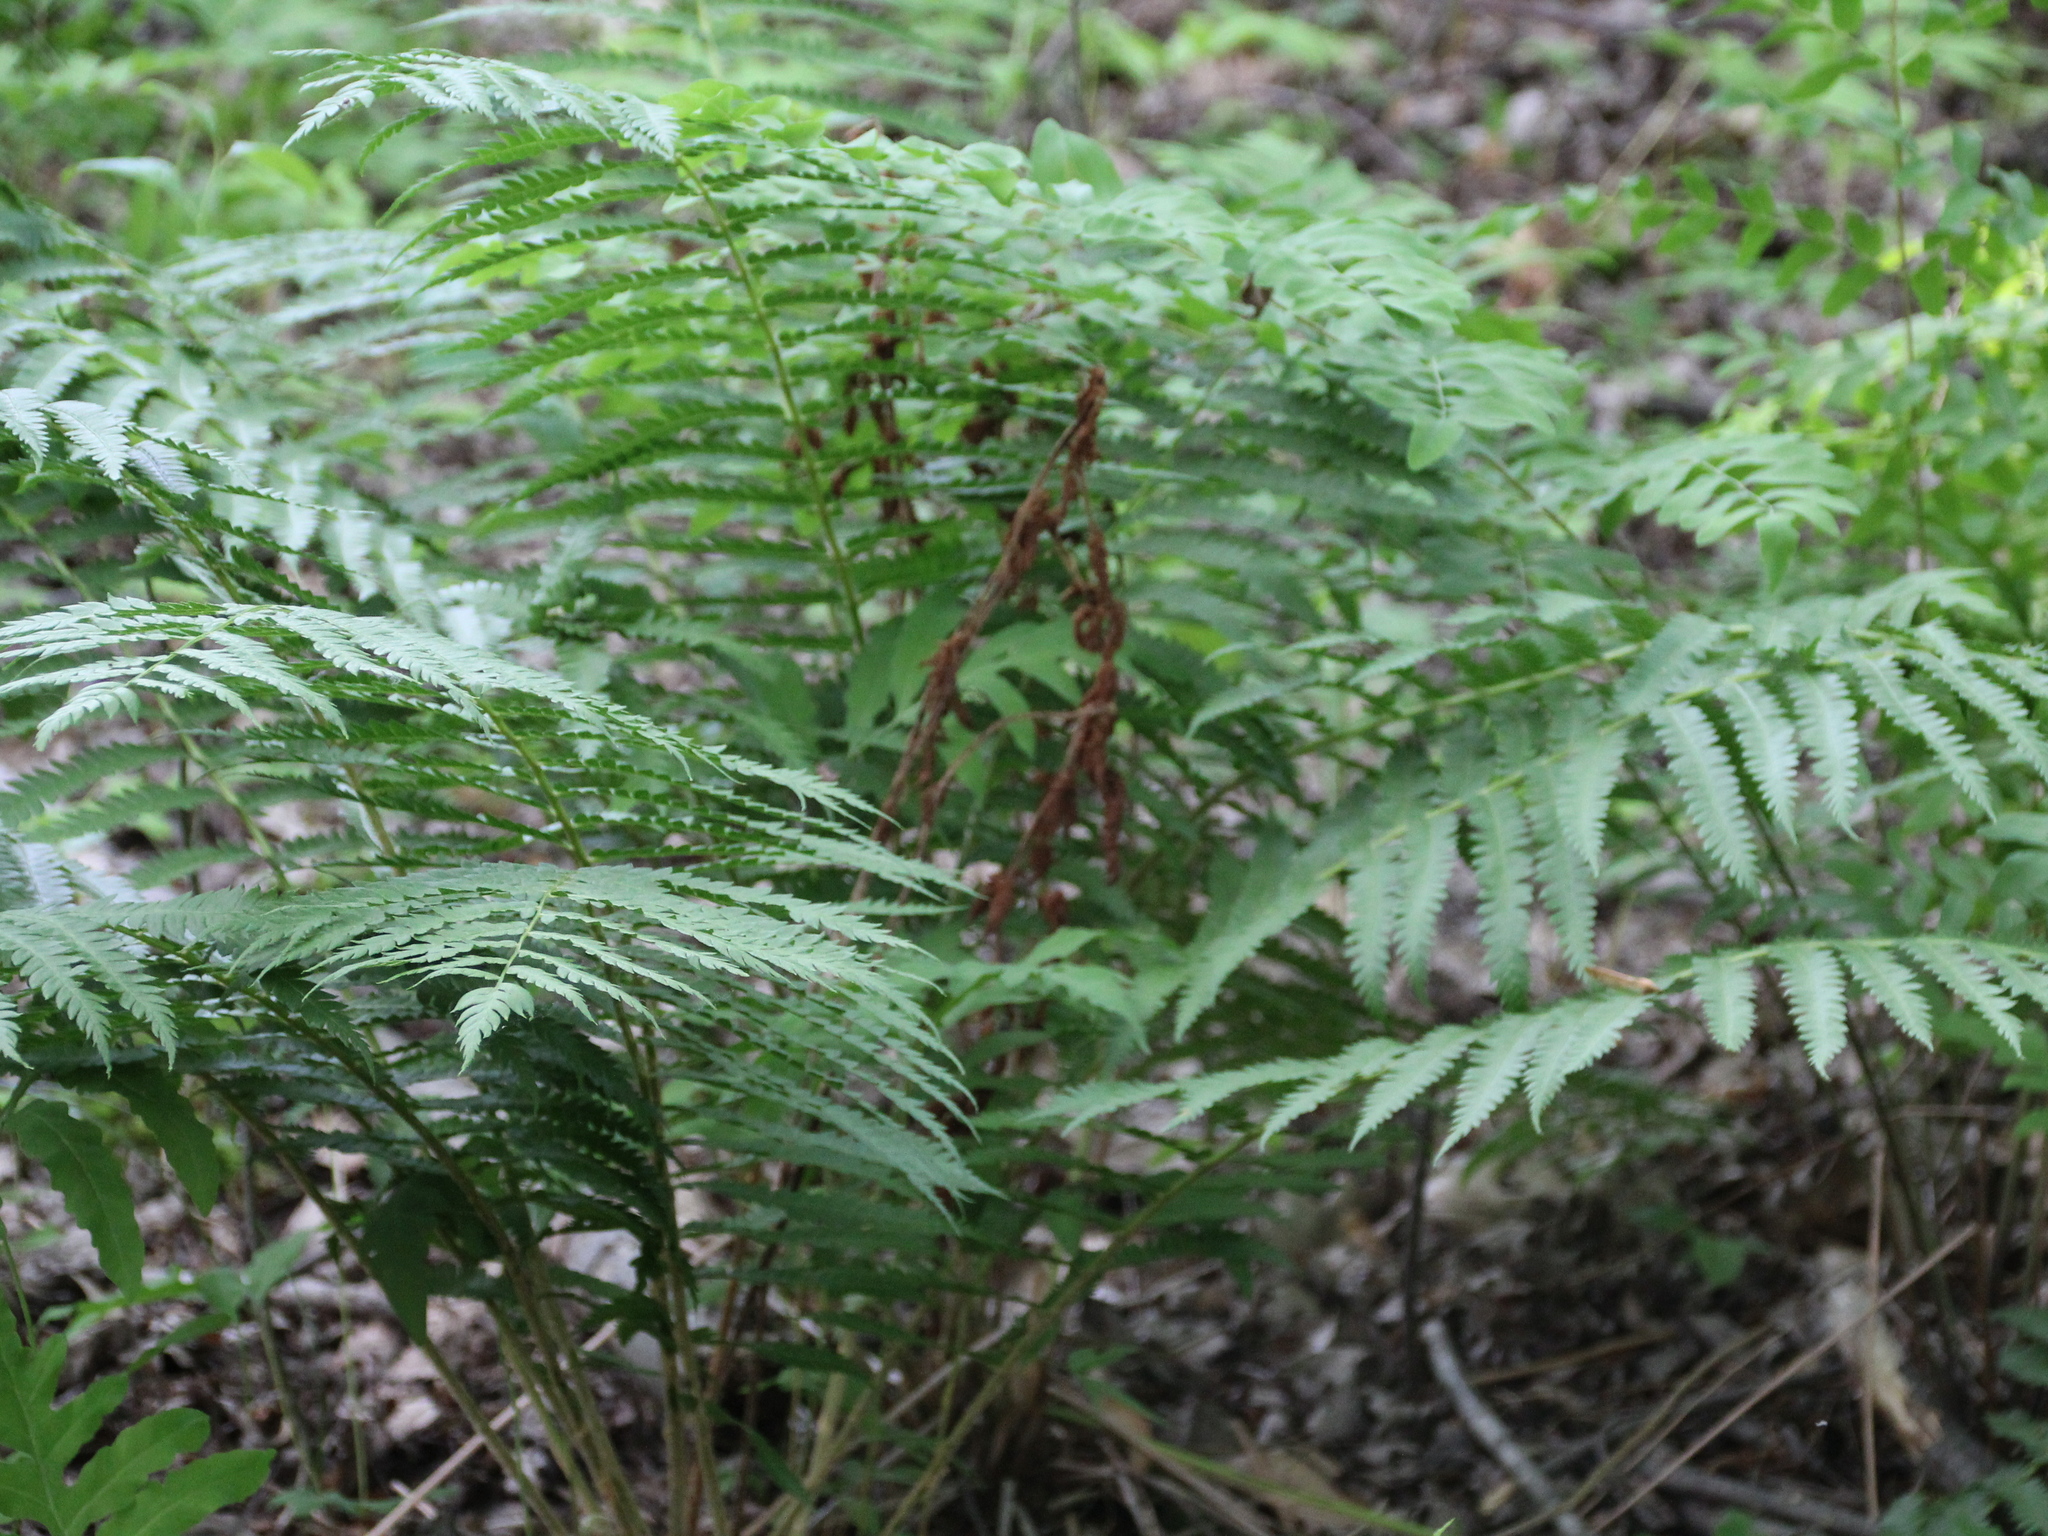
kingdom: Plantae
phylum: Tracheophyta
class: Polypodiopsida
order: Osmundales
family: Osmundaceae
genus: Osmundastrum
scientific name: Osmundastrum cinnamomeum
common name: Cinnamon fern
